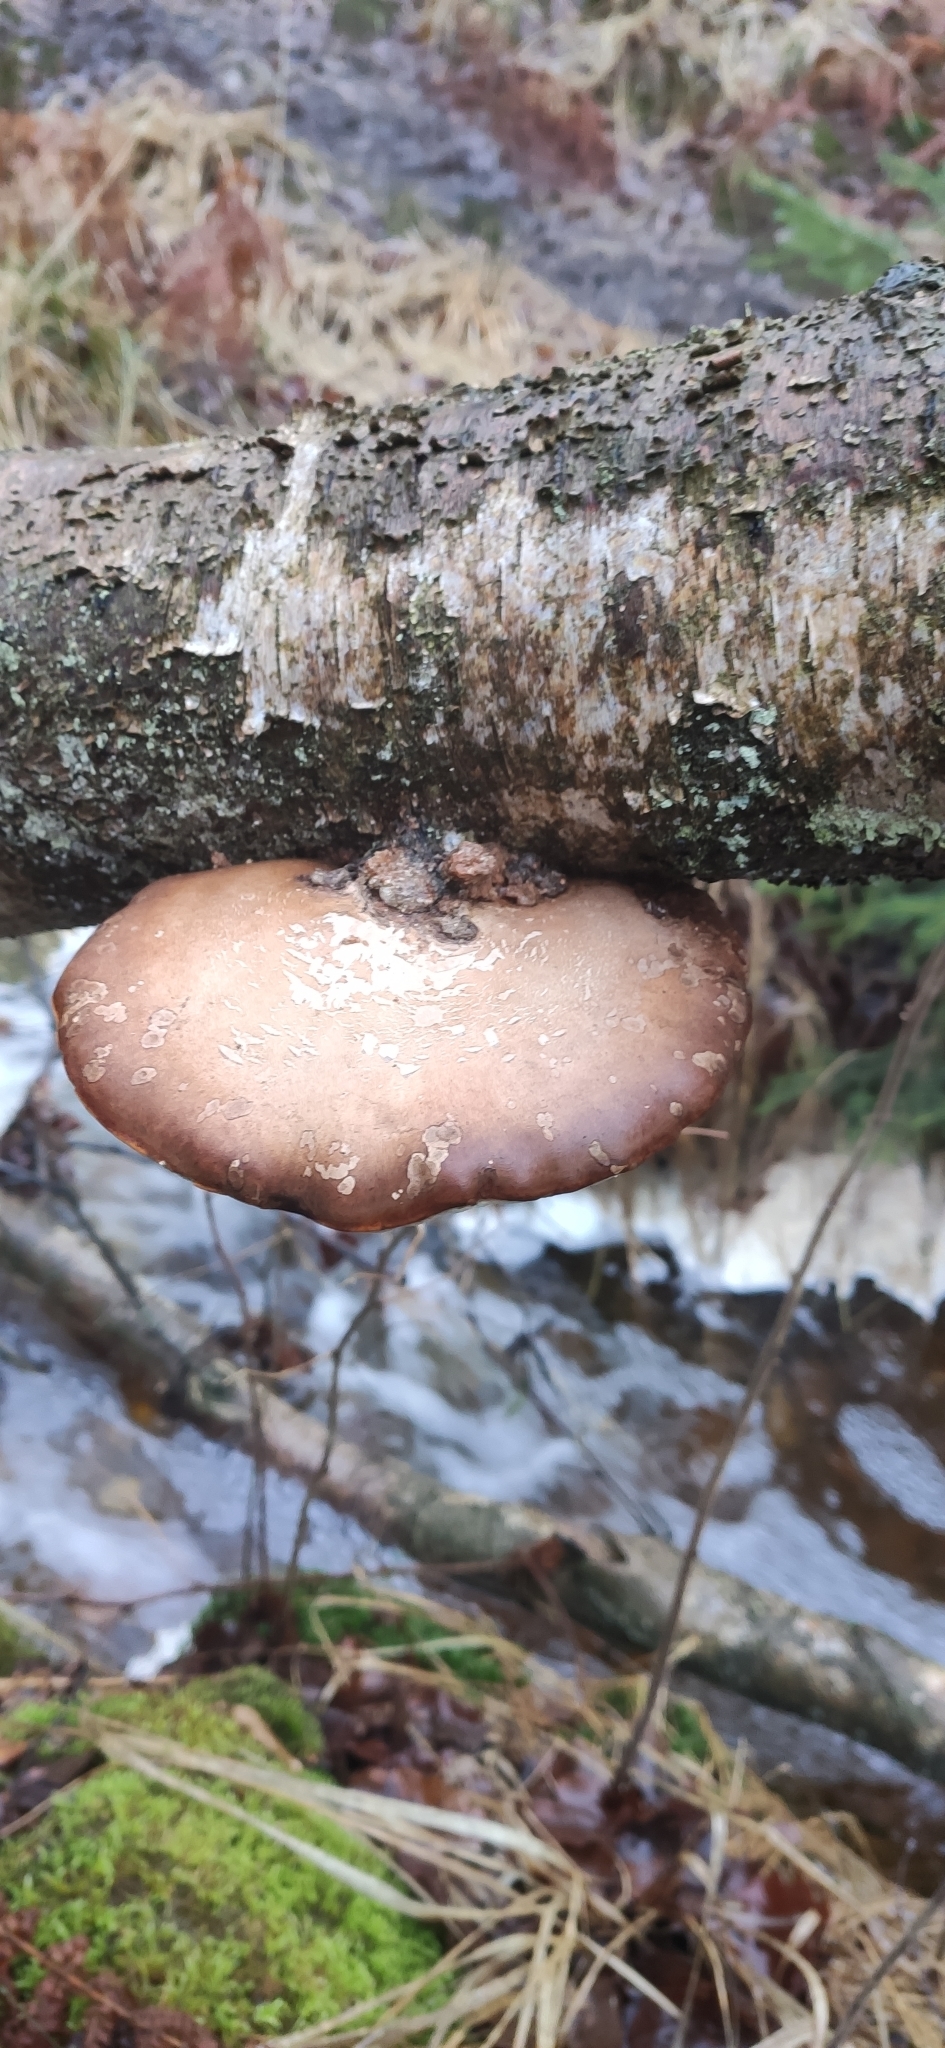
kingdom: Fungi
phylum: Basidiomycota
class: Agaricomycetes
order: Polyporales
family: Fomitopsidaceae
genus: Fomitopsis
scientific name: Fomitopsis betulina
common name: Birch polypore
